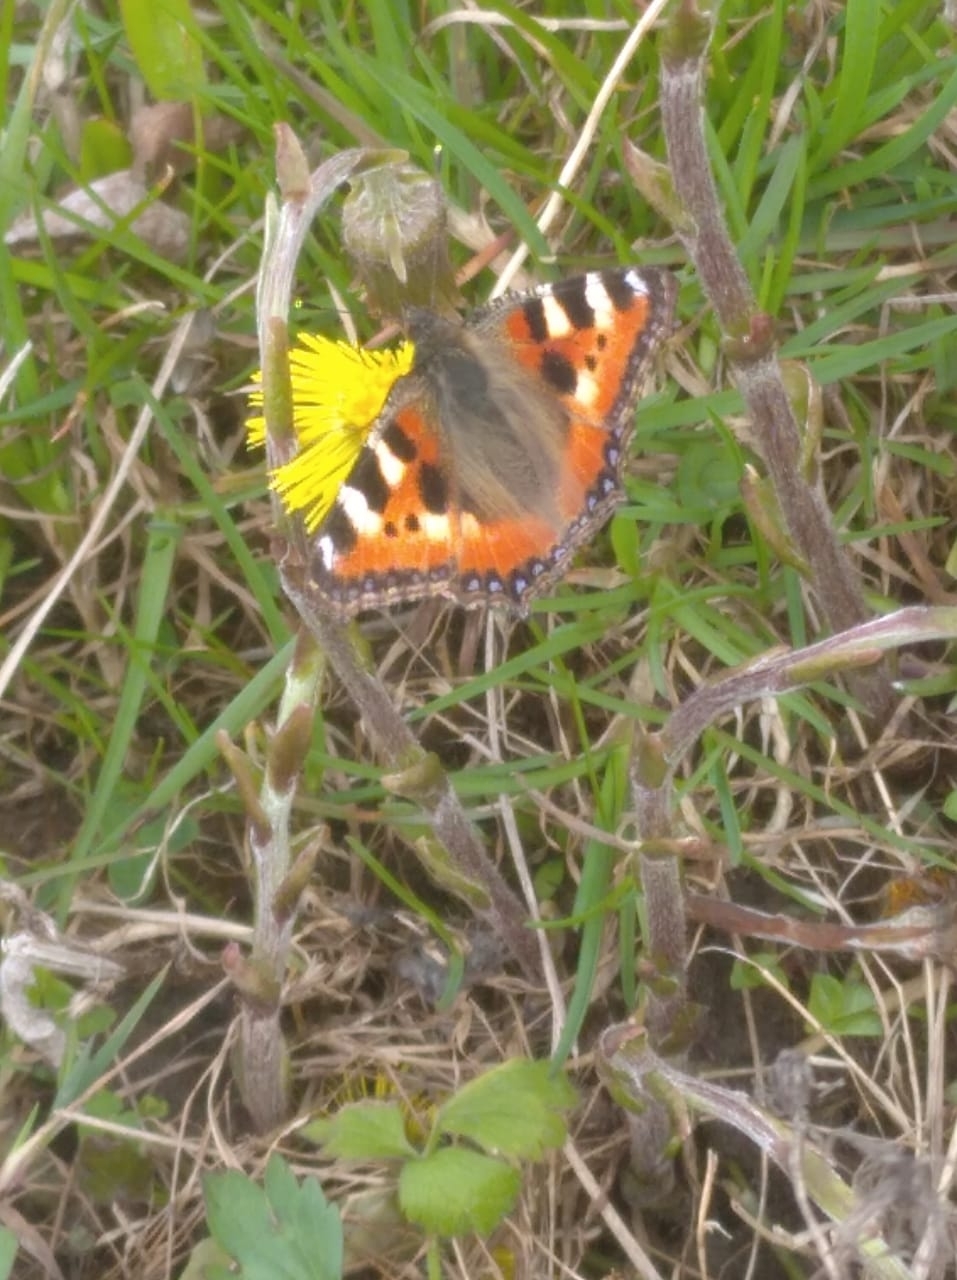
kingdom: Animalia
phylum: Arthropoda
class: Insecta
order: Lepidoptera
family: Nymphalidae
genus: Aglais
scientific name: Aglais urticae
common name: Small tortoiseshell
